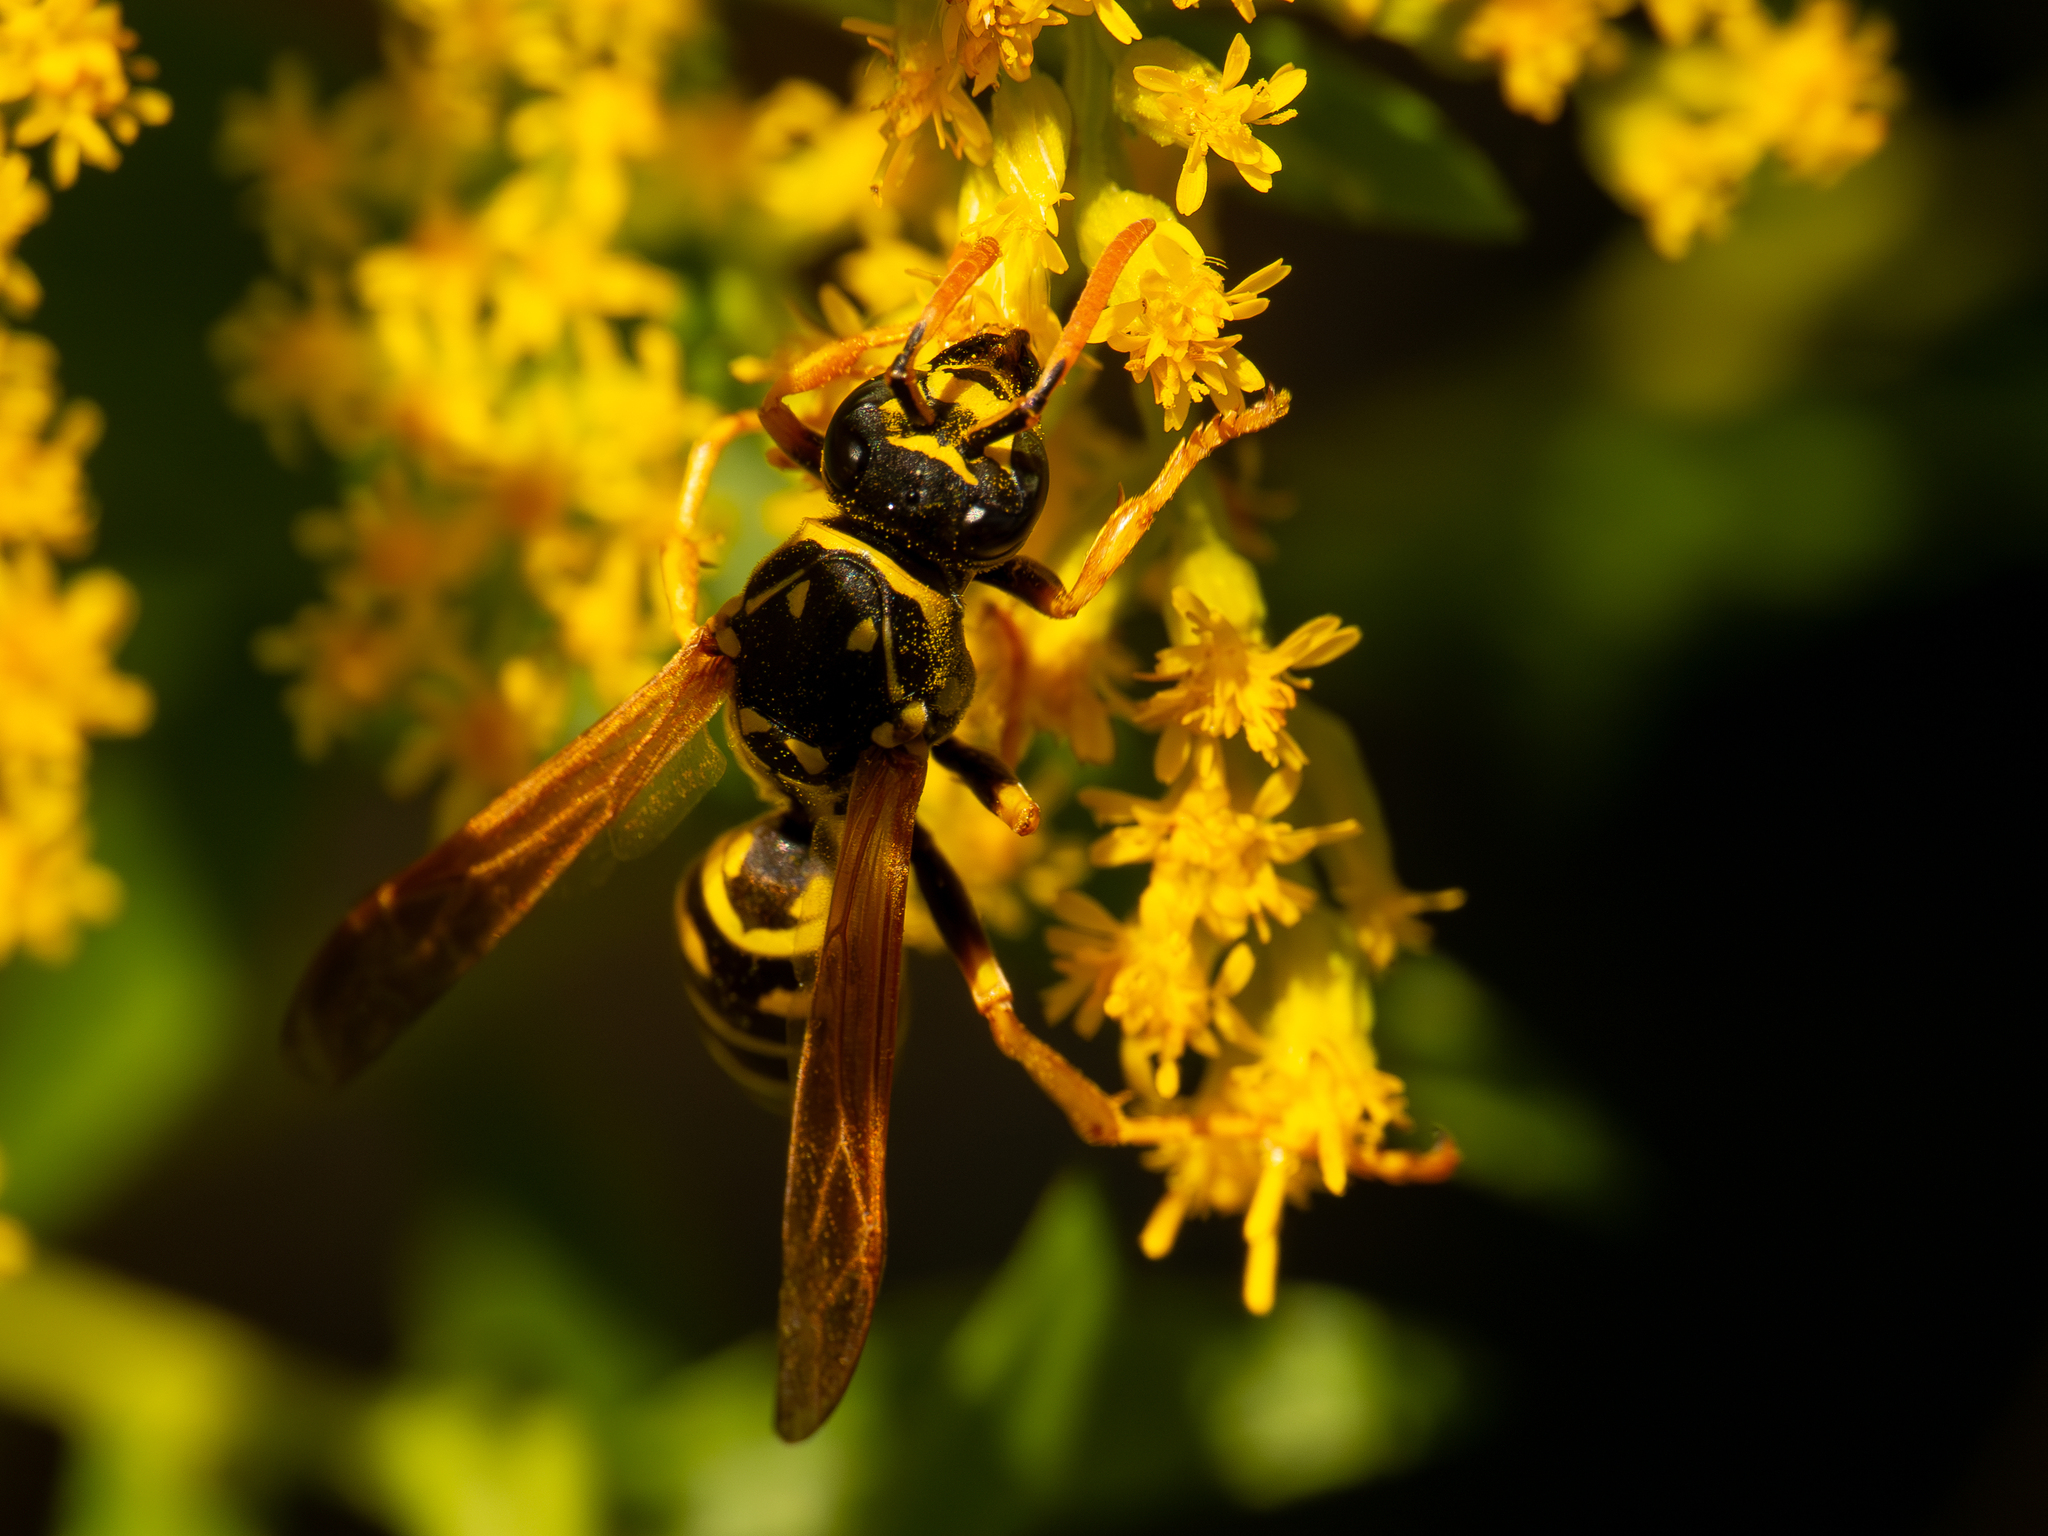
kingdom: Animalia
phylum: Arthropoda
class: Insecta
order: Hymenoptera
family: Eumenidae
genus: Polistes
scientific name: Polistes dominula
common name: Paper wasp
